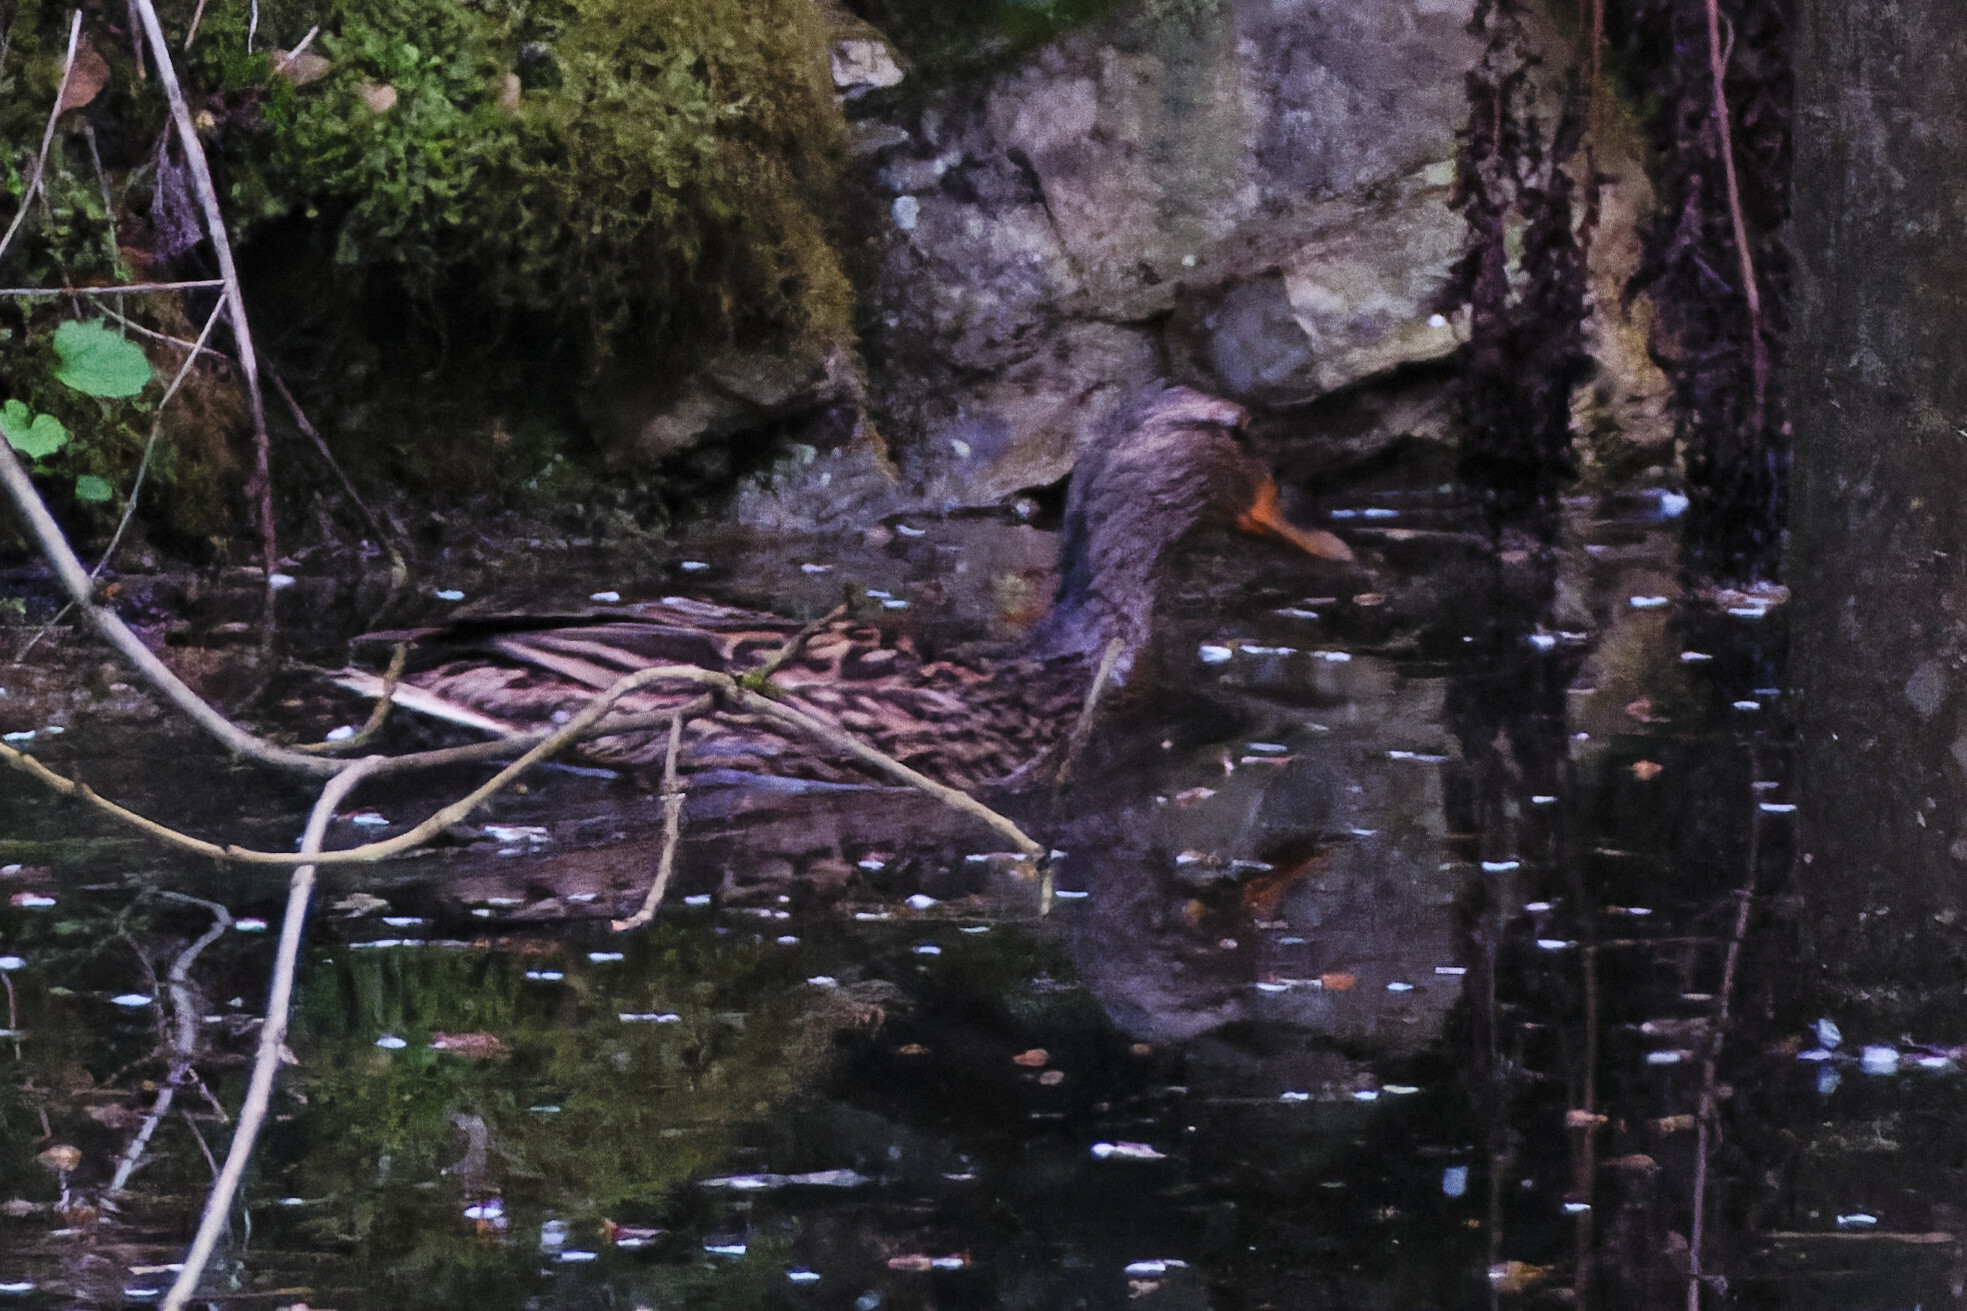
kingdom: Animalia
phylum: Chordata
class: Aves
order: Anseriformes
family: Anatidae
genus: Anas
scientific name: Anas platyrhynchos
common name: Mallard
